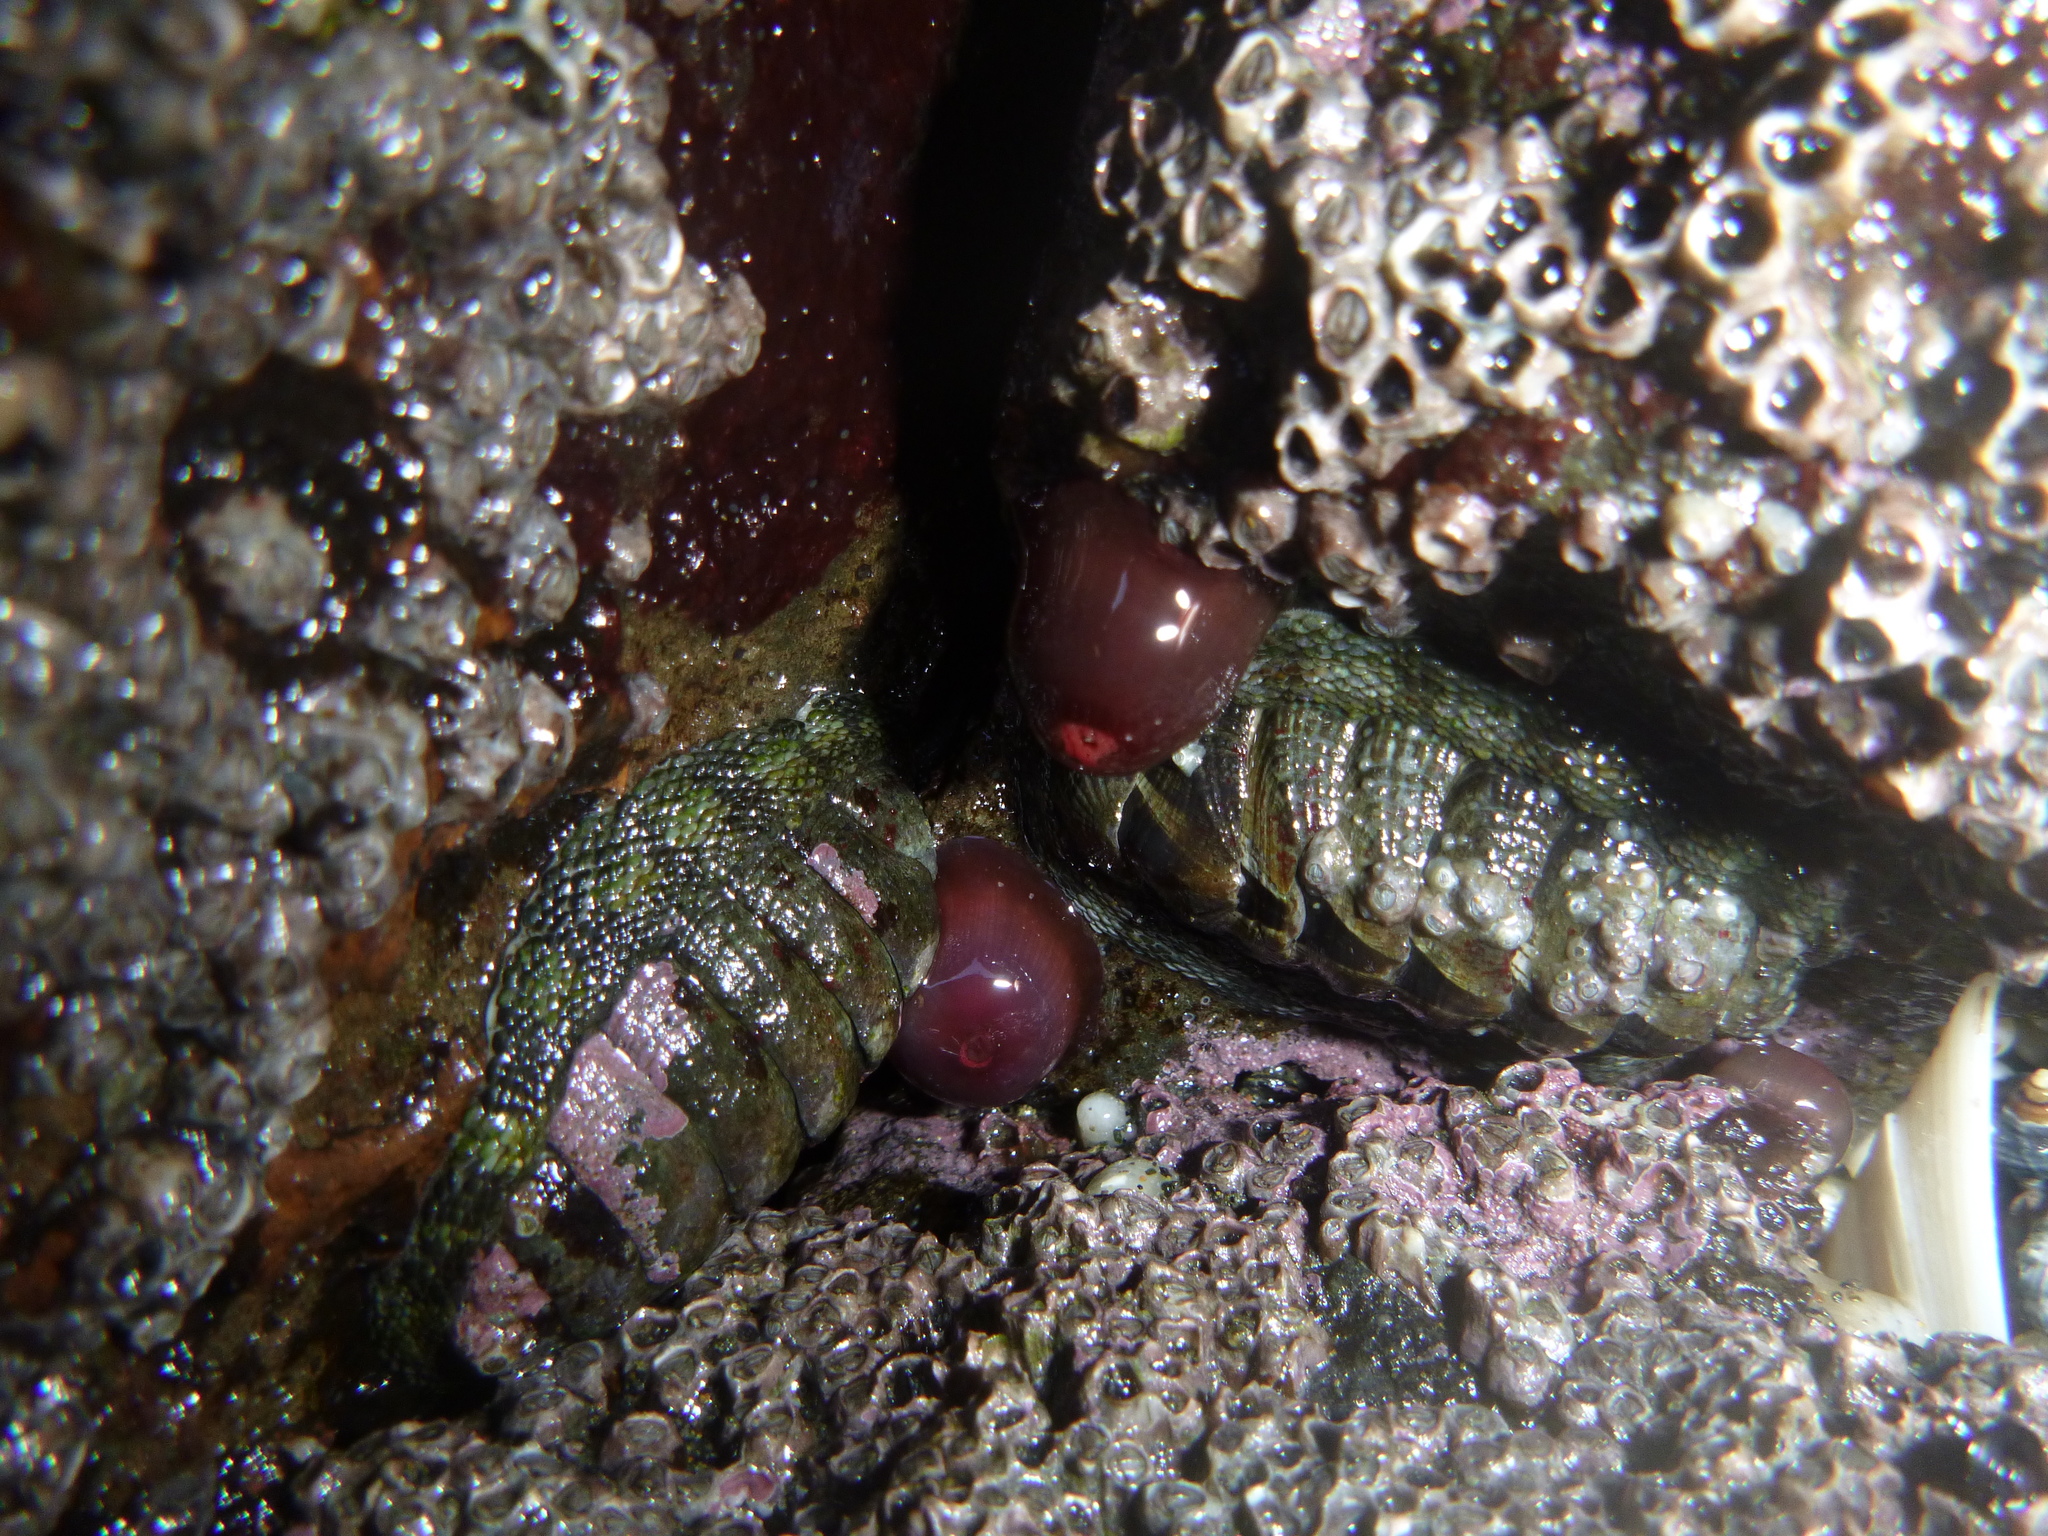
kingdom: Animalia
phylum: Mollusca
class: Polyplacophora
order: Chitonida
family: Chitonidae
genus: Sypharochiton
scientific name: Sypharochiton pelliserpentis
